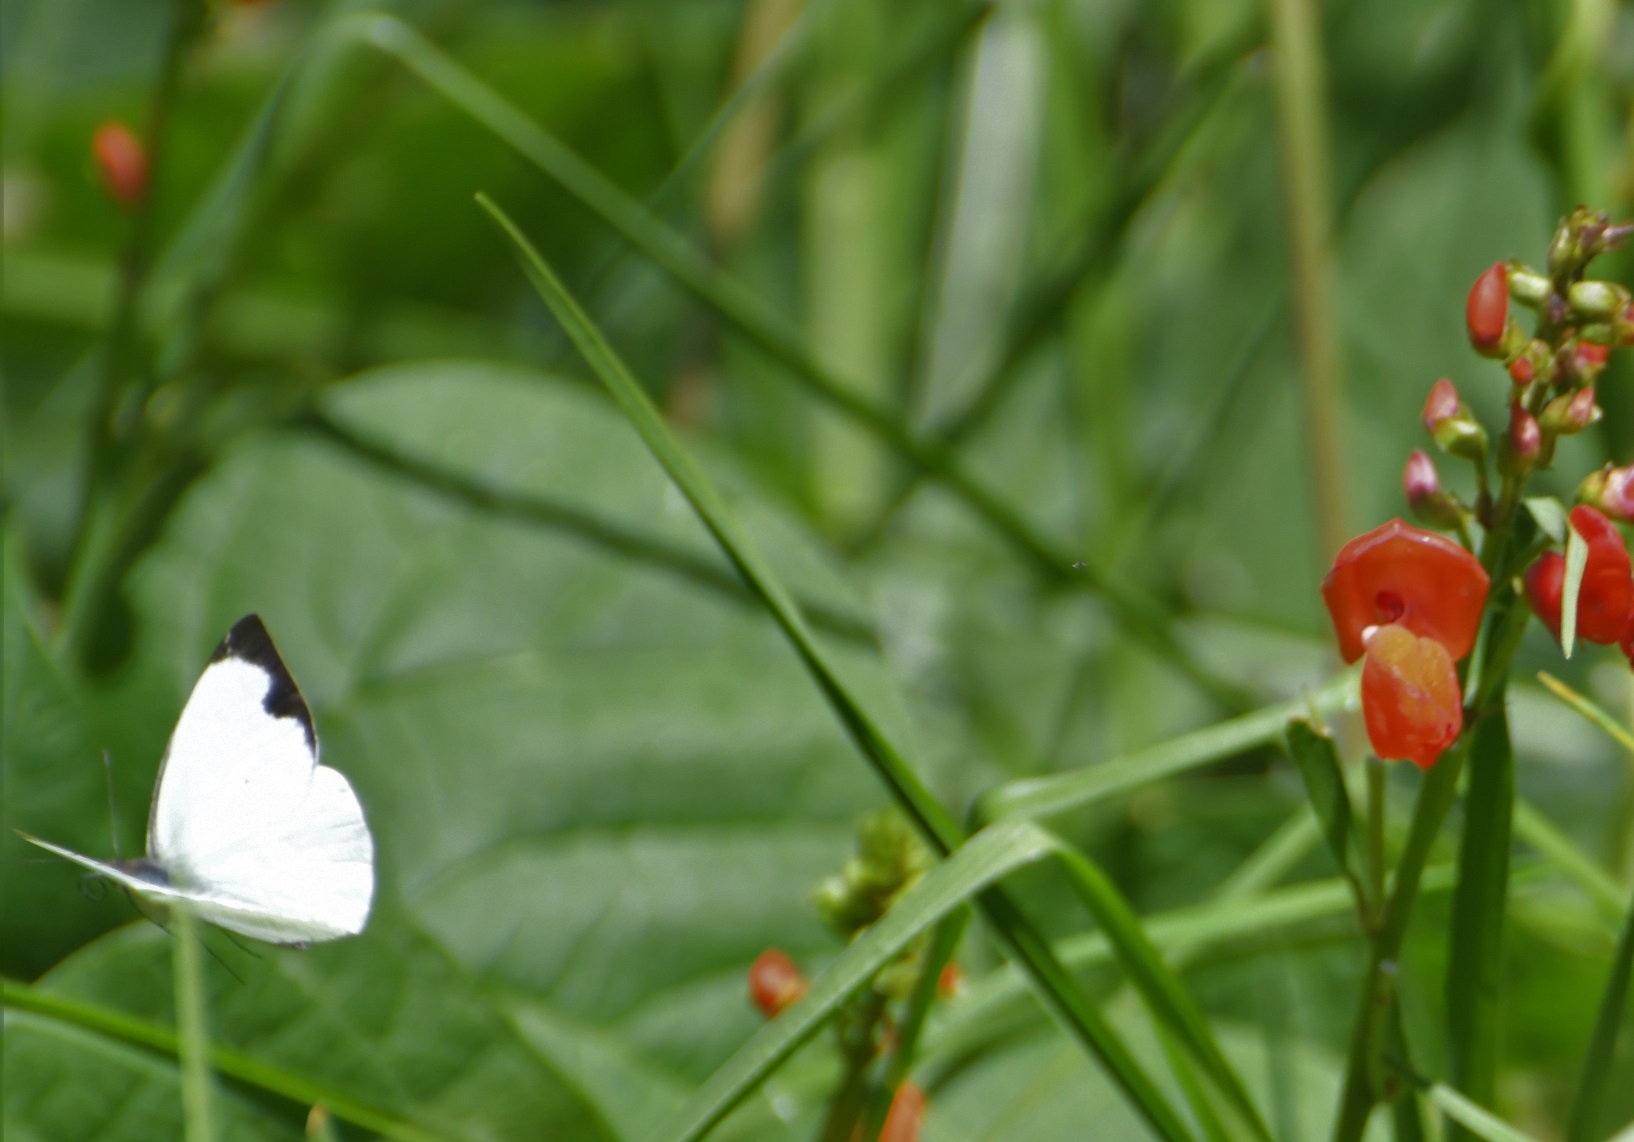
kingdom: Animalia
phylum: Arthropoda
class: Insecta
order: Lepidoptera
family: Pieridae
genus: Leptophobia
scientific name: Leptophobia aripa
